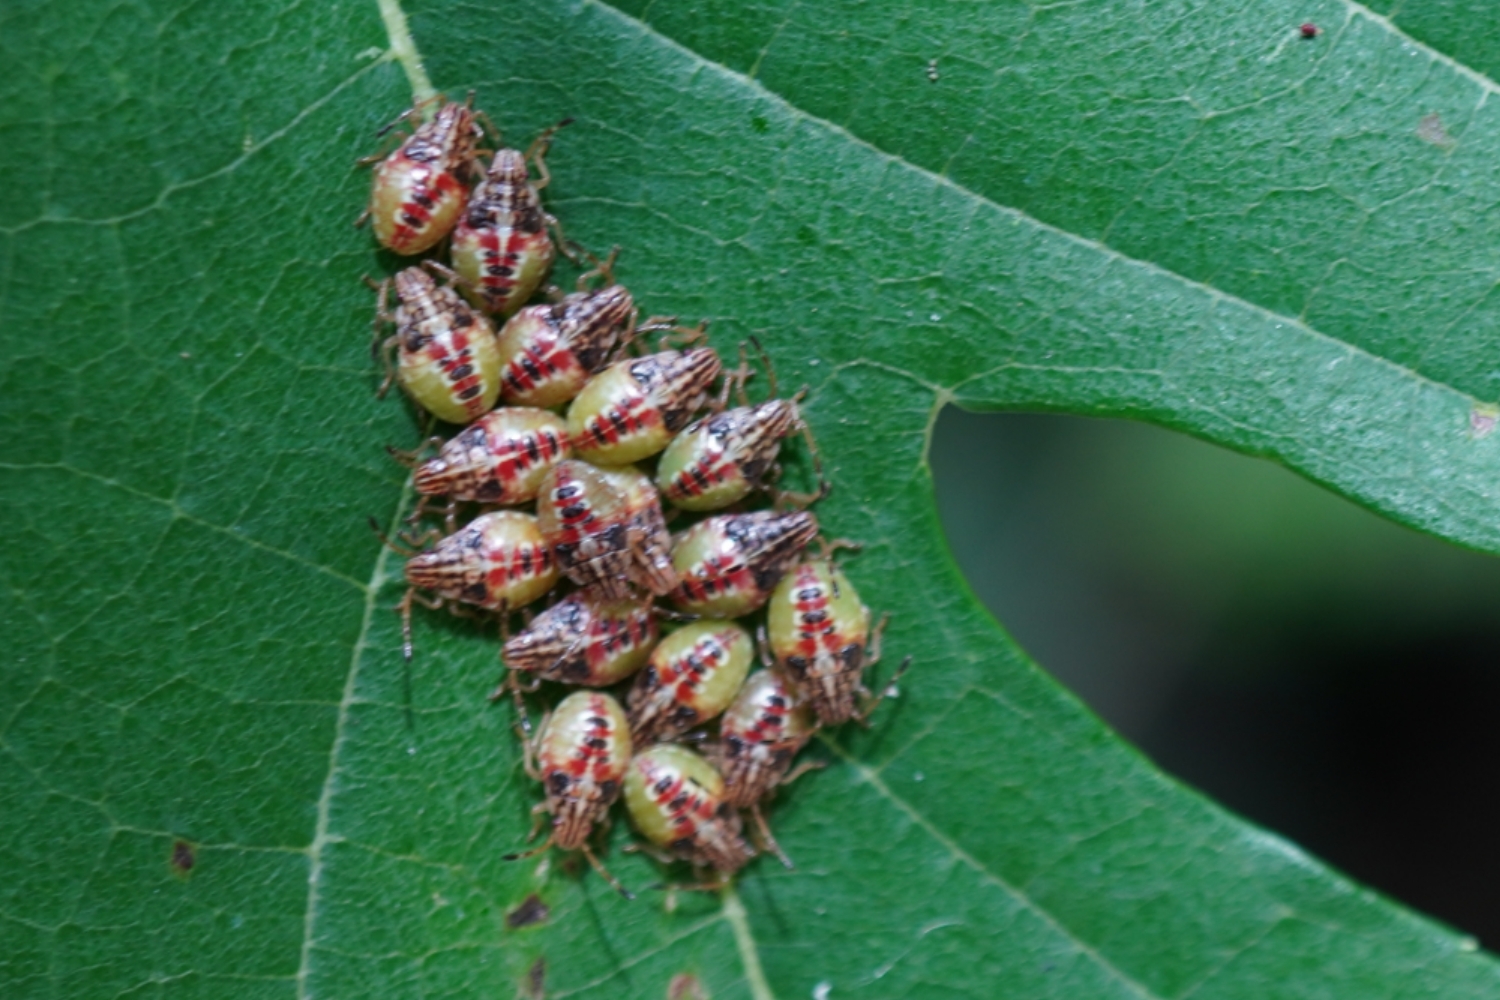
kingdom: Animalia
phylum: Arthropoda
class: Insecta
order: Hemiptera
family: Acanthosomatidae
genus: Elasmucha
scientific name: Elasmucha putoni
